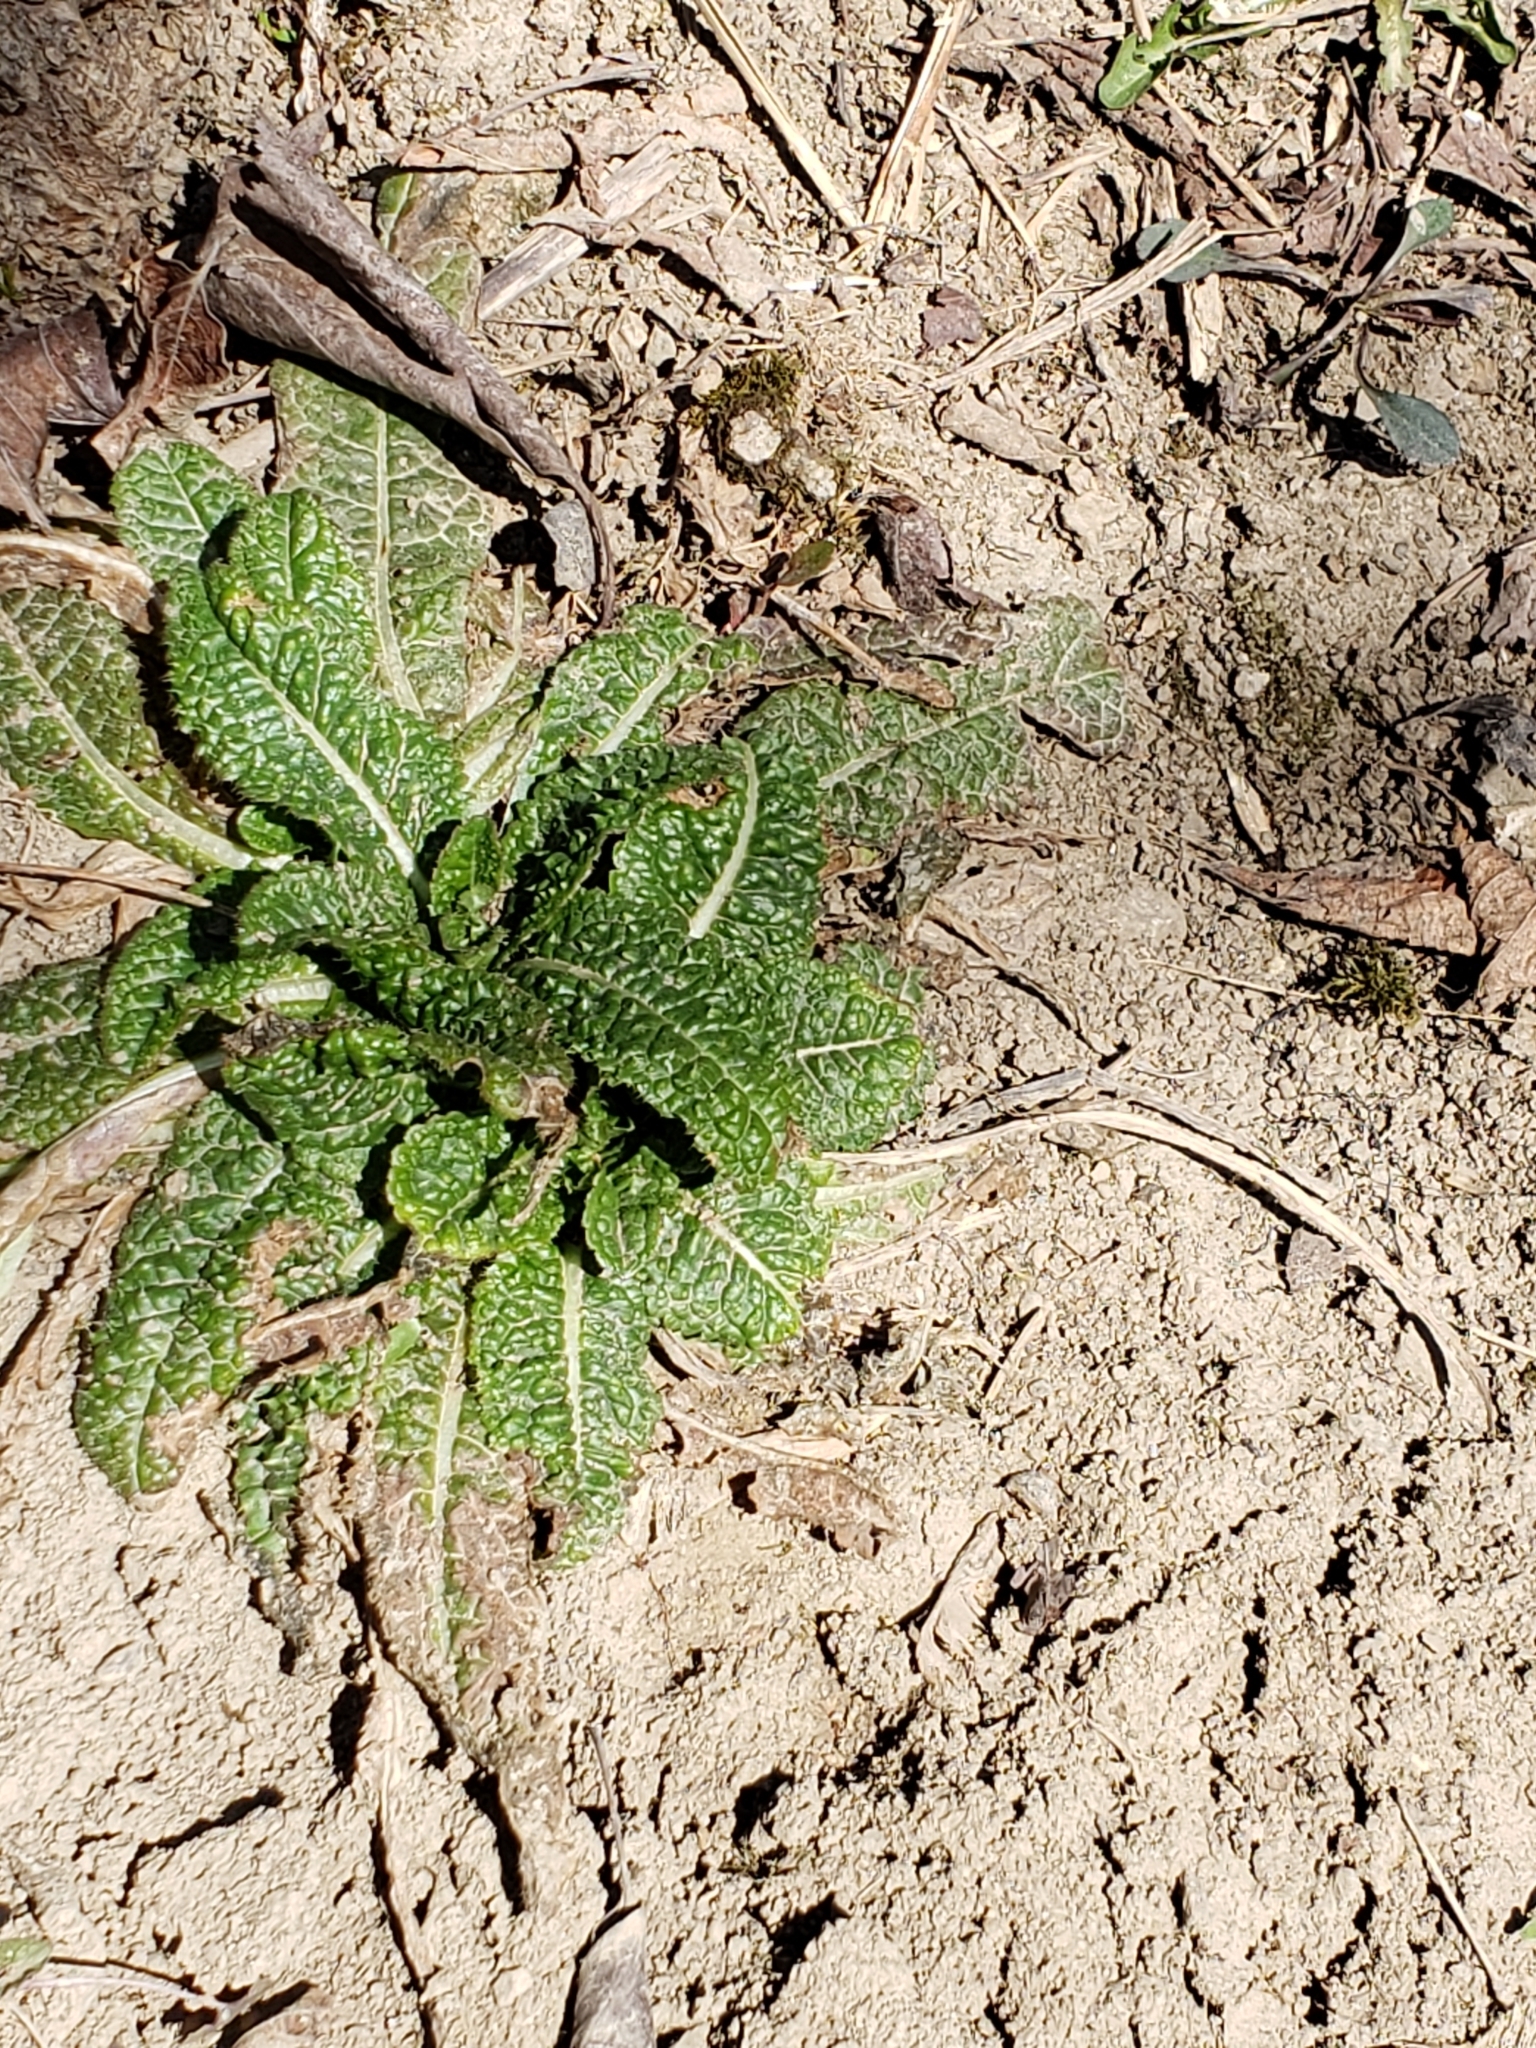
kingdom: Plantae
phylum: Tracheophyta
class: Magnoliopsida
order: Dipsacales
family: Caprifoliaceae
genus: Dipsacus
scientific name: Dipsacus fullonum
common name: Teasel
